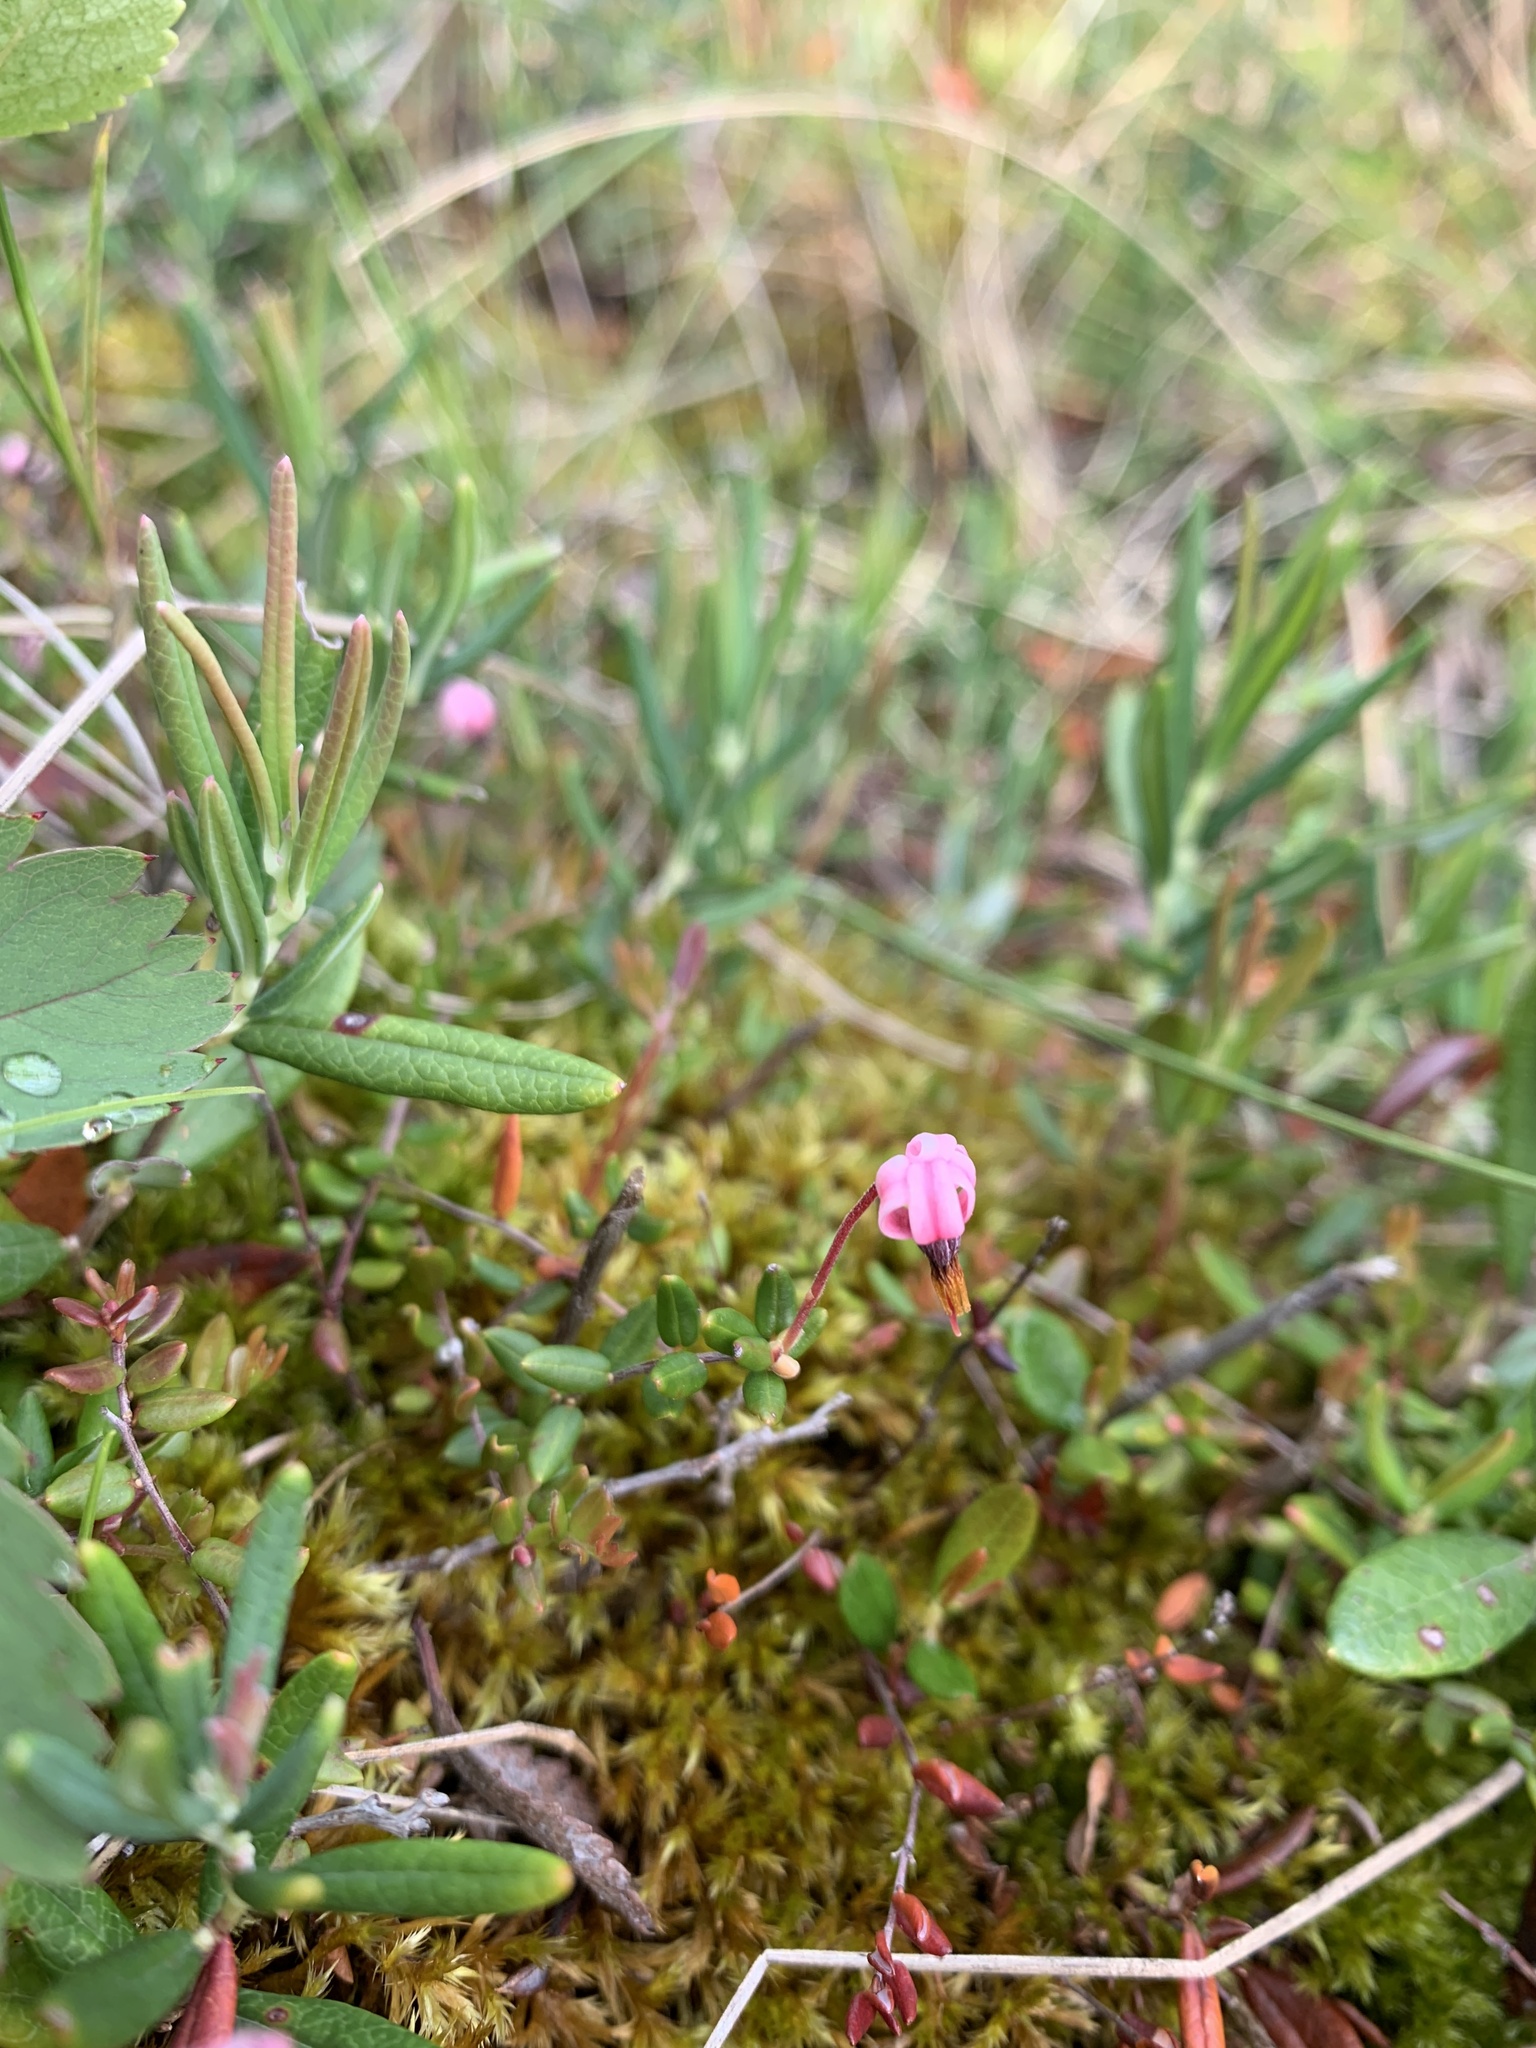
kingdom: Plantae
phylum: Tracheophyta
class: Magnoliopsida
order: Ericales
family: Ericaceae
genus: Andromeda
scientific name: Andromeda polifolia
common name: Bog-rosemary
